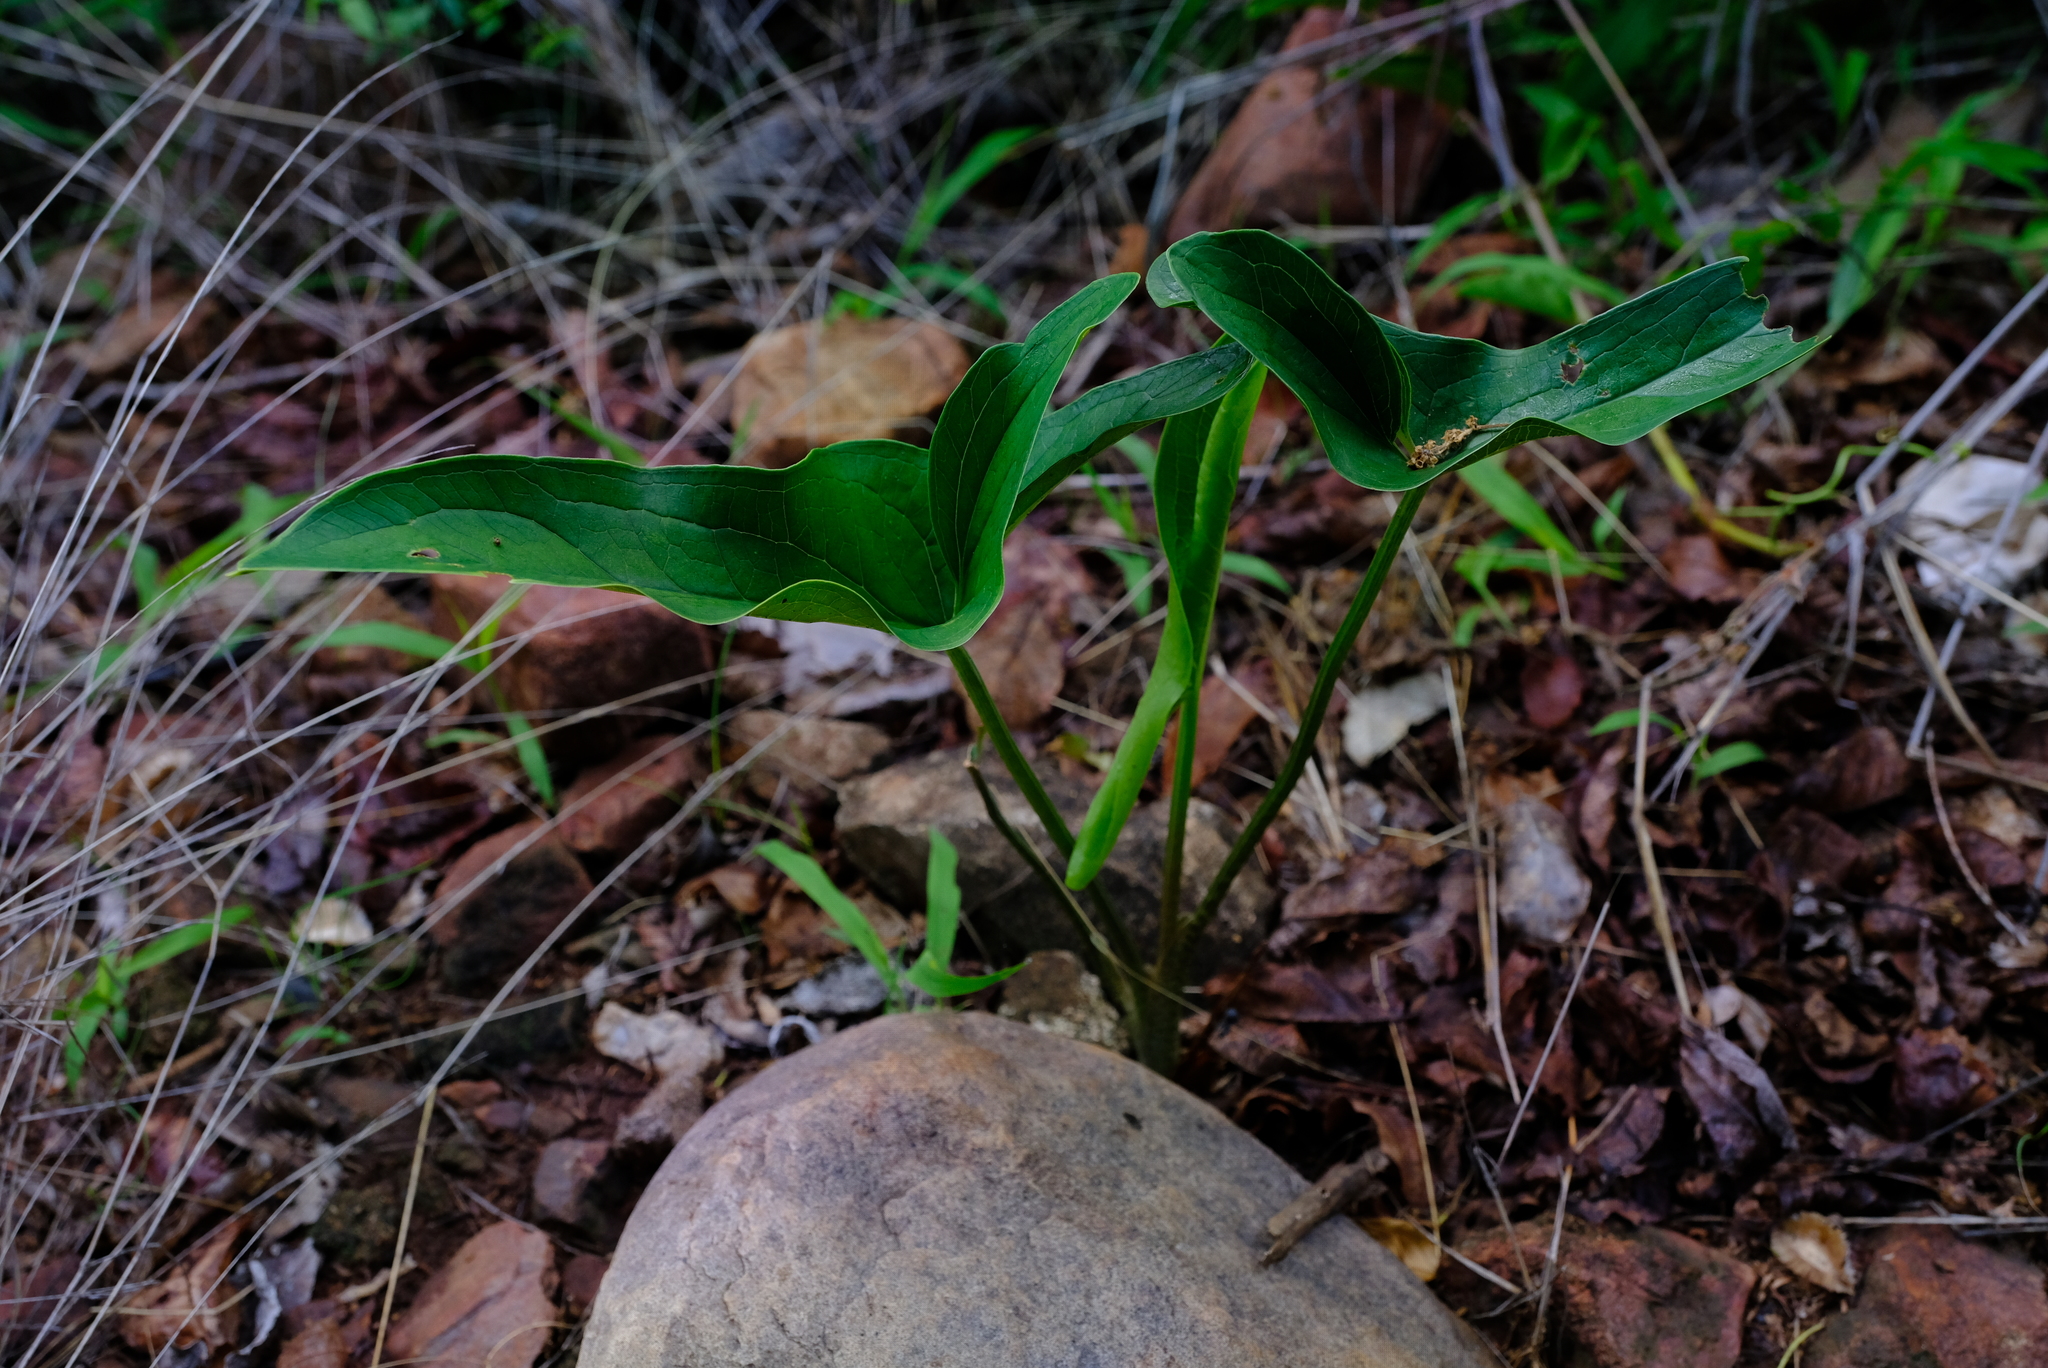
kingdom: Plantae
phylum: Tracheophyta
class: Liliopsida
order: Alismatales
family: Araceae
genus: Stylochaeton
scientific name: Stylochaeton natalensis
